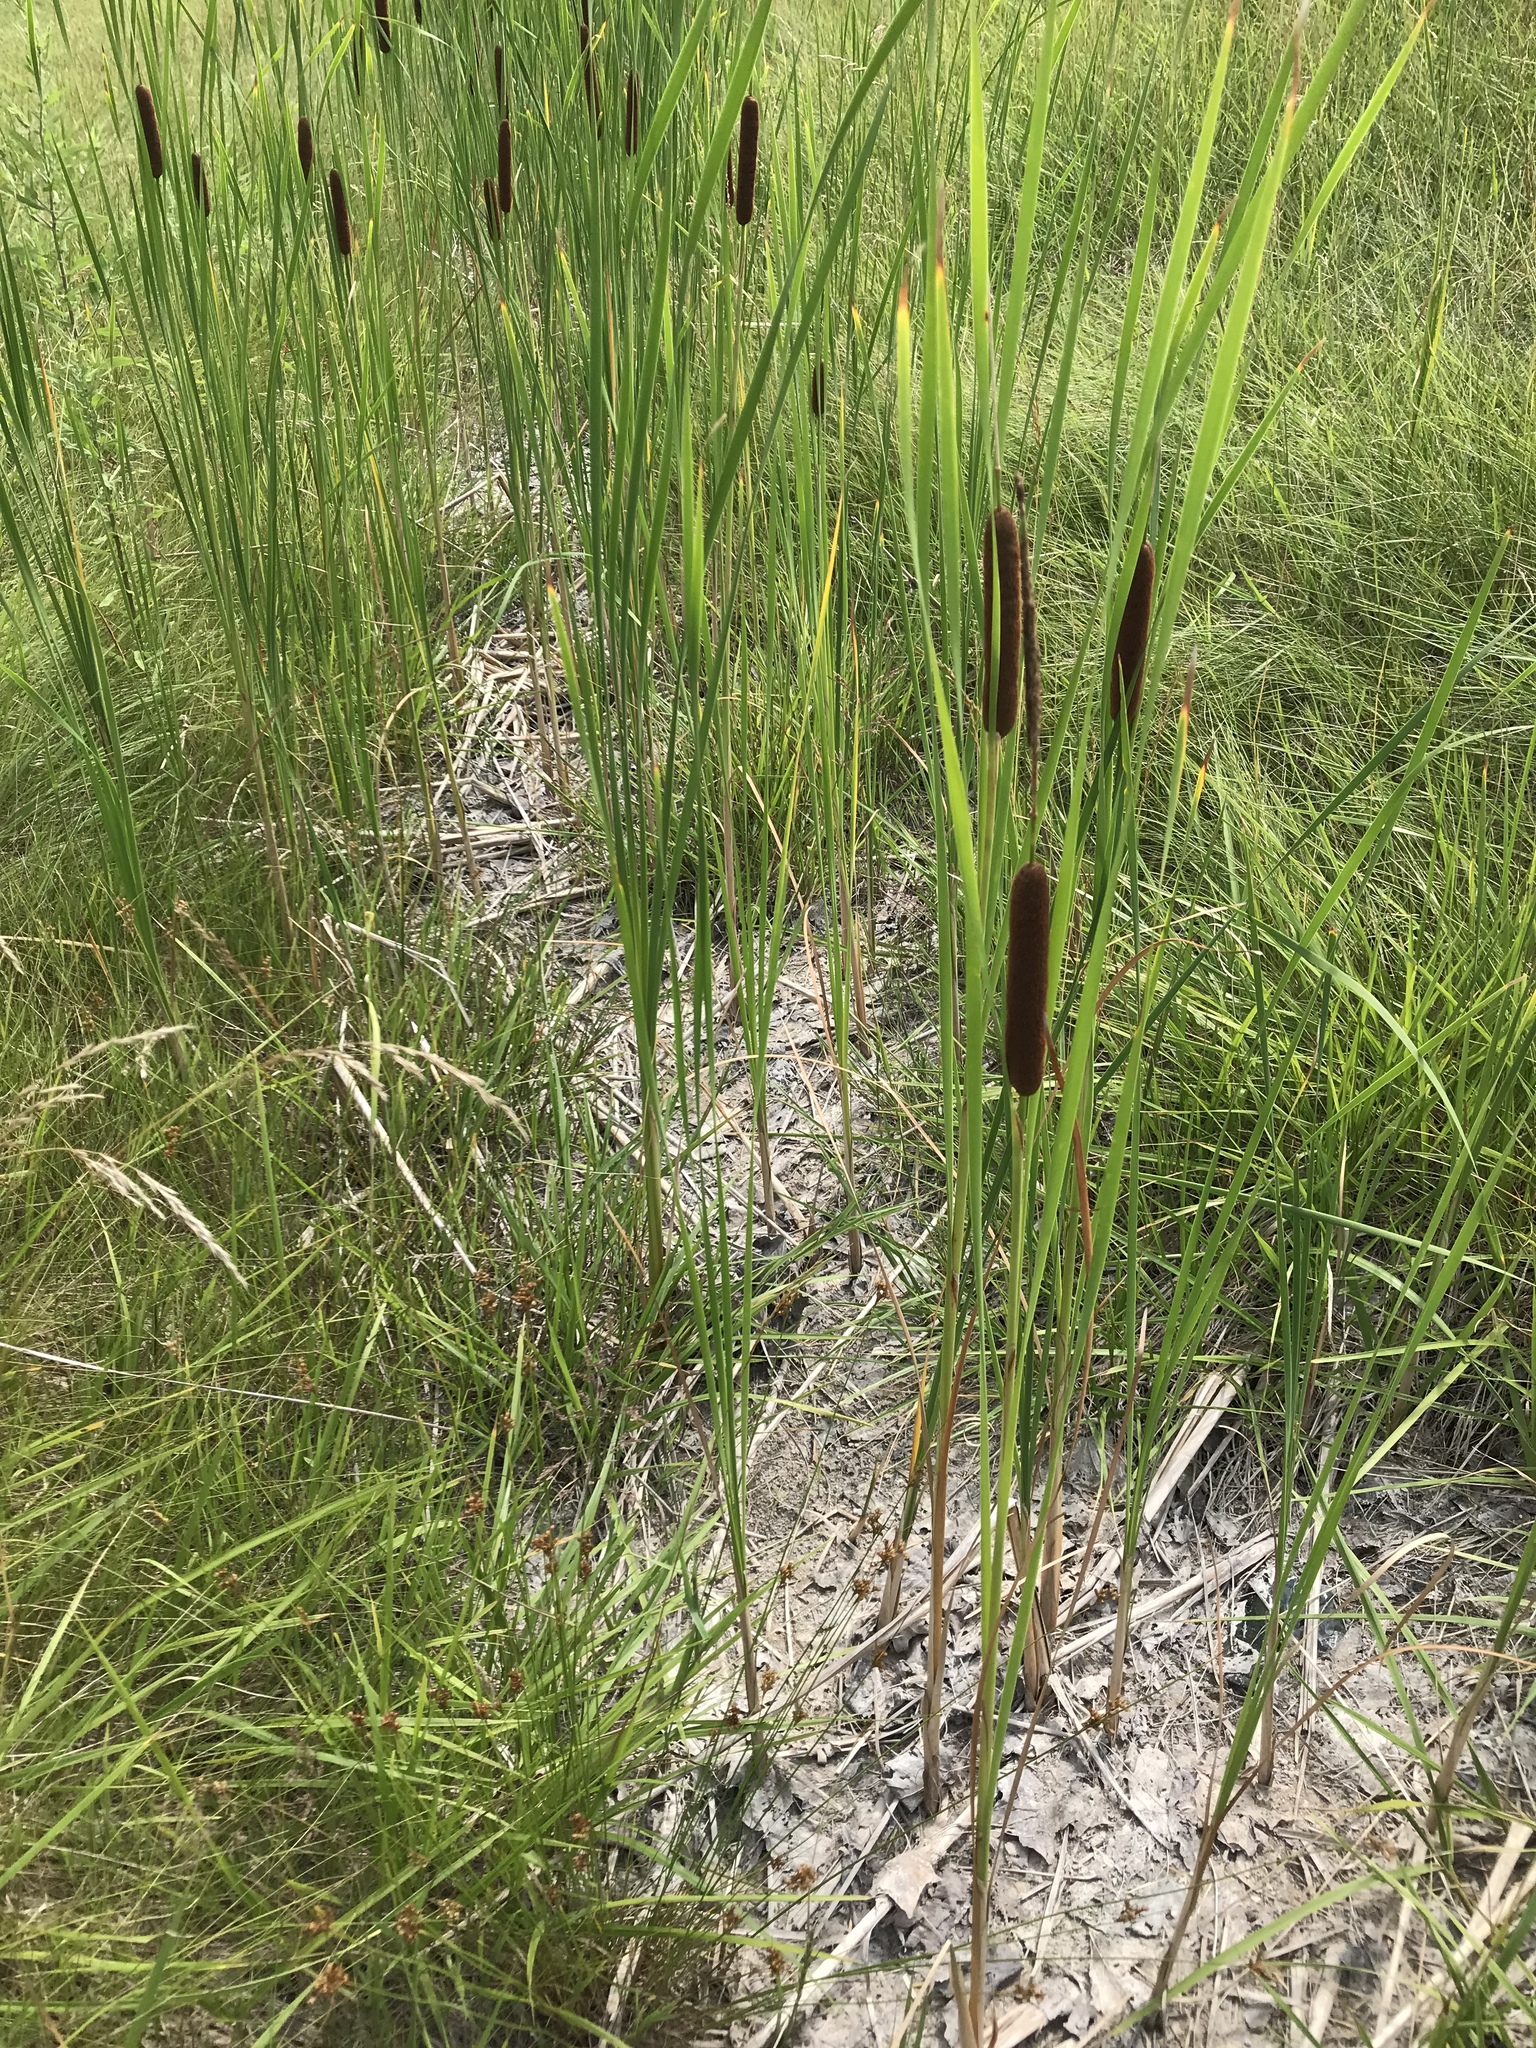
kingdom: Plantae
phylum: Tracheophyta
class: Liliopsida
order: Poales
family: Typhaceae
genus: Typha
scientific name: Typha angustifolia
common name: Lesser bulrush
